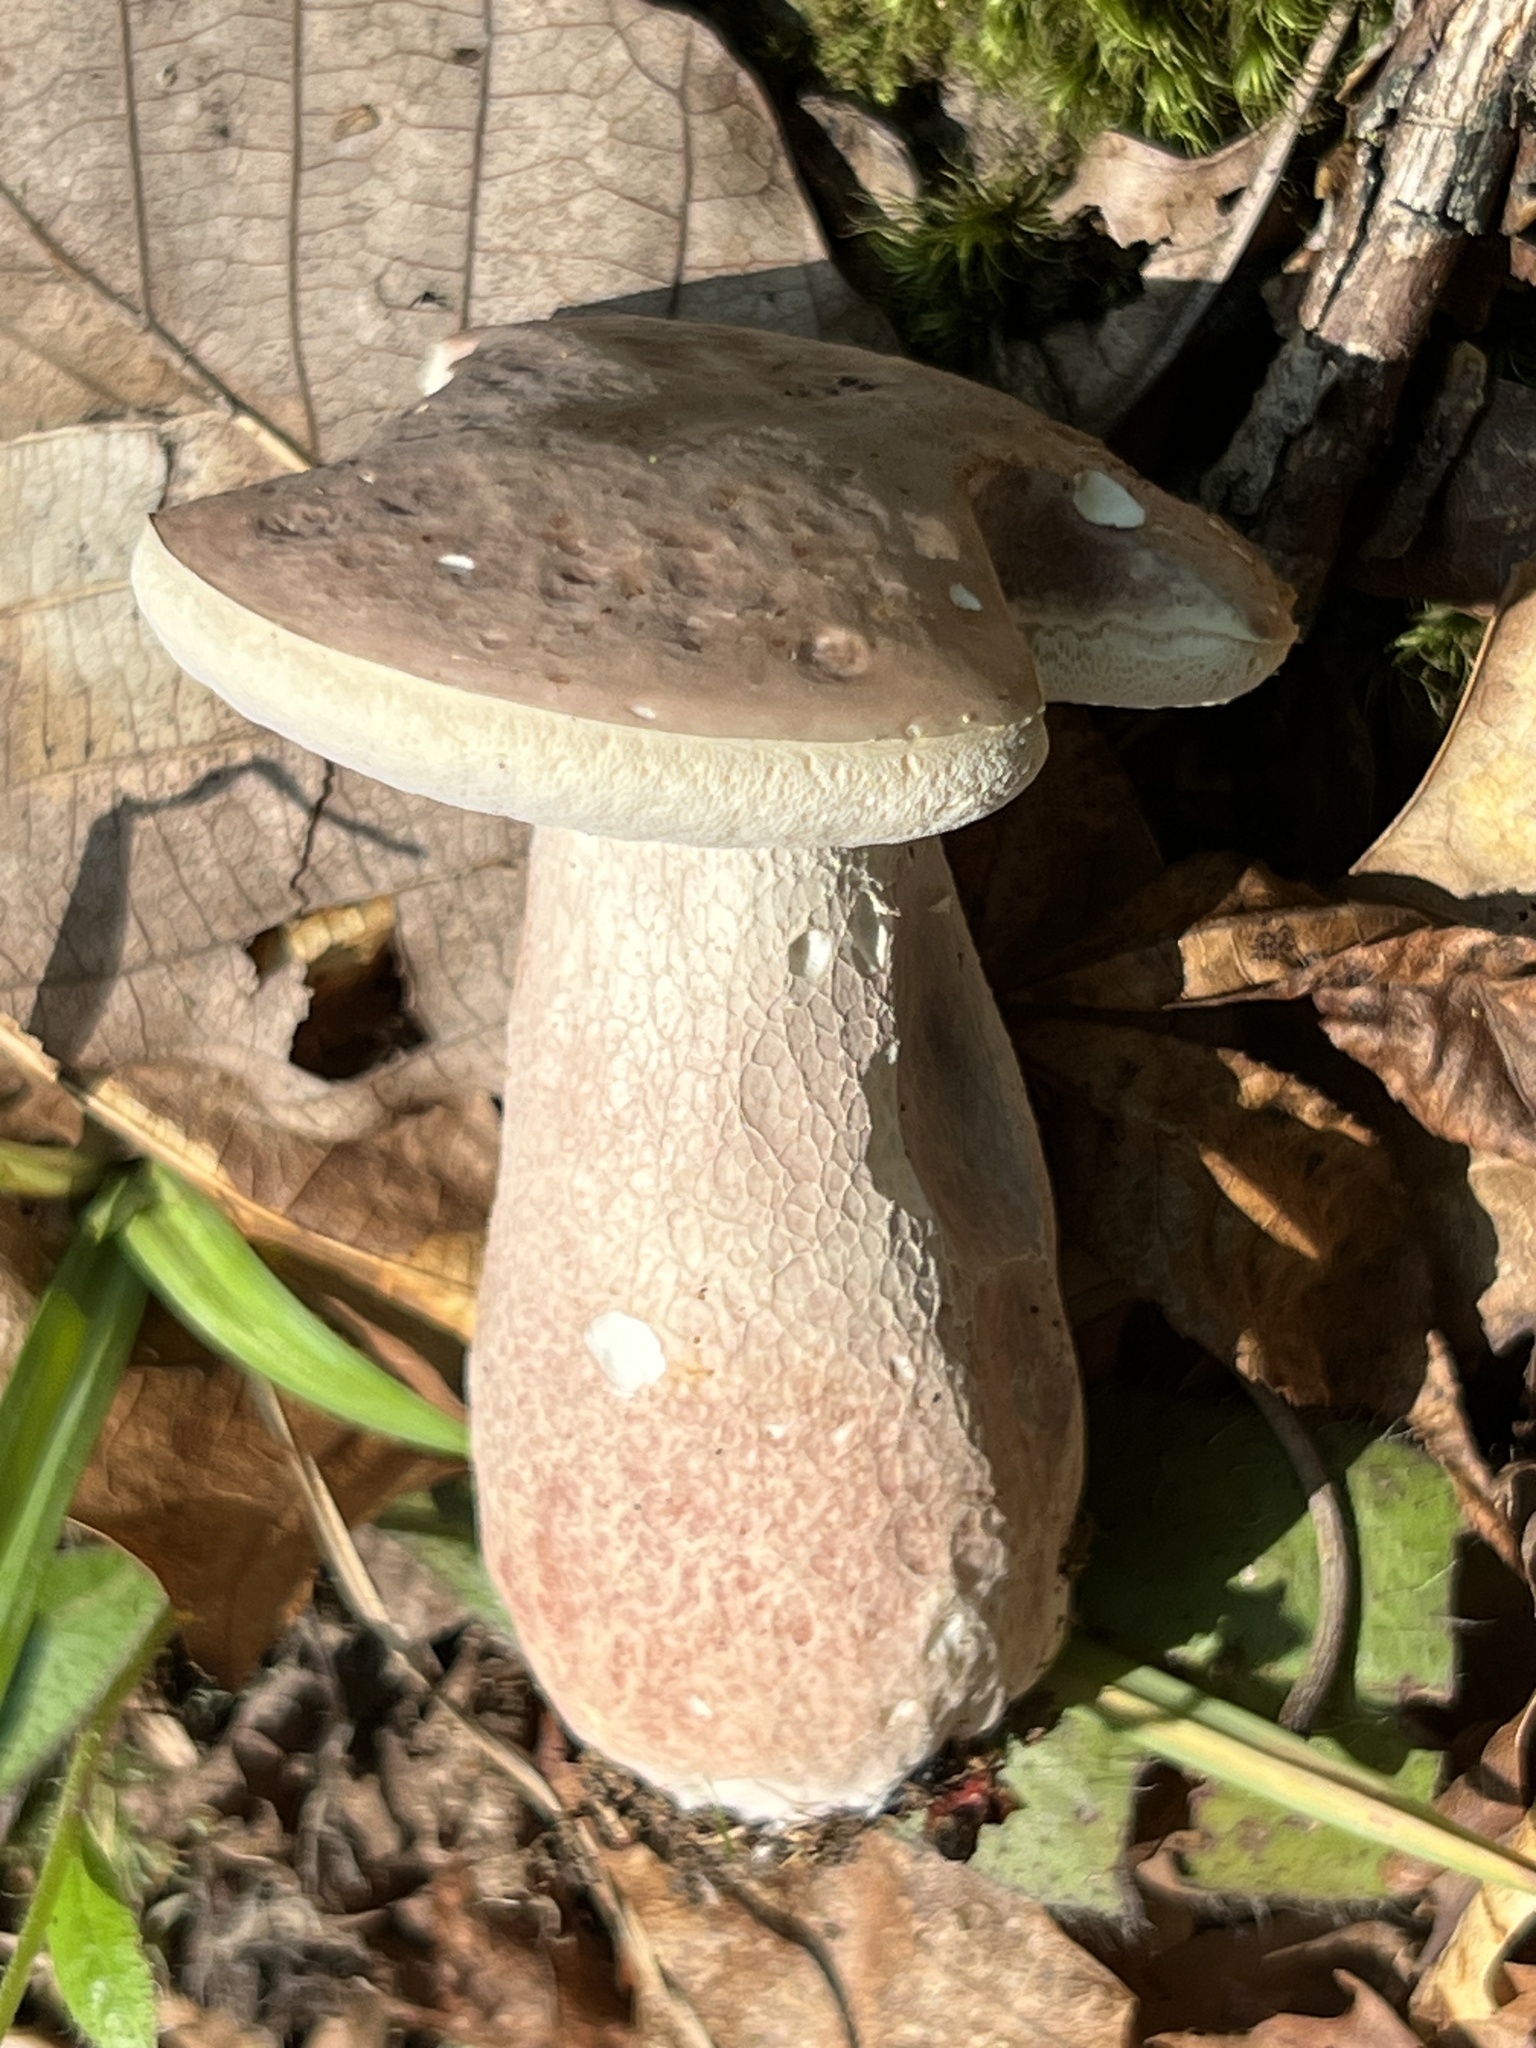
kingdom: Fungi
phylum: Basidiomycota
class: Agaricomycetes
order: Boletales
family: Boletaceae
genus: Xanthoconium
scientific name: Xanthoconium separans
